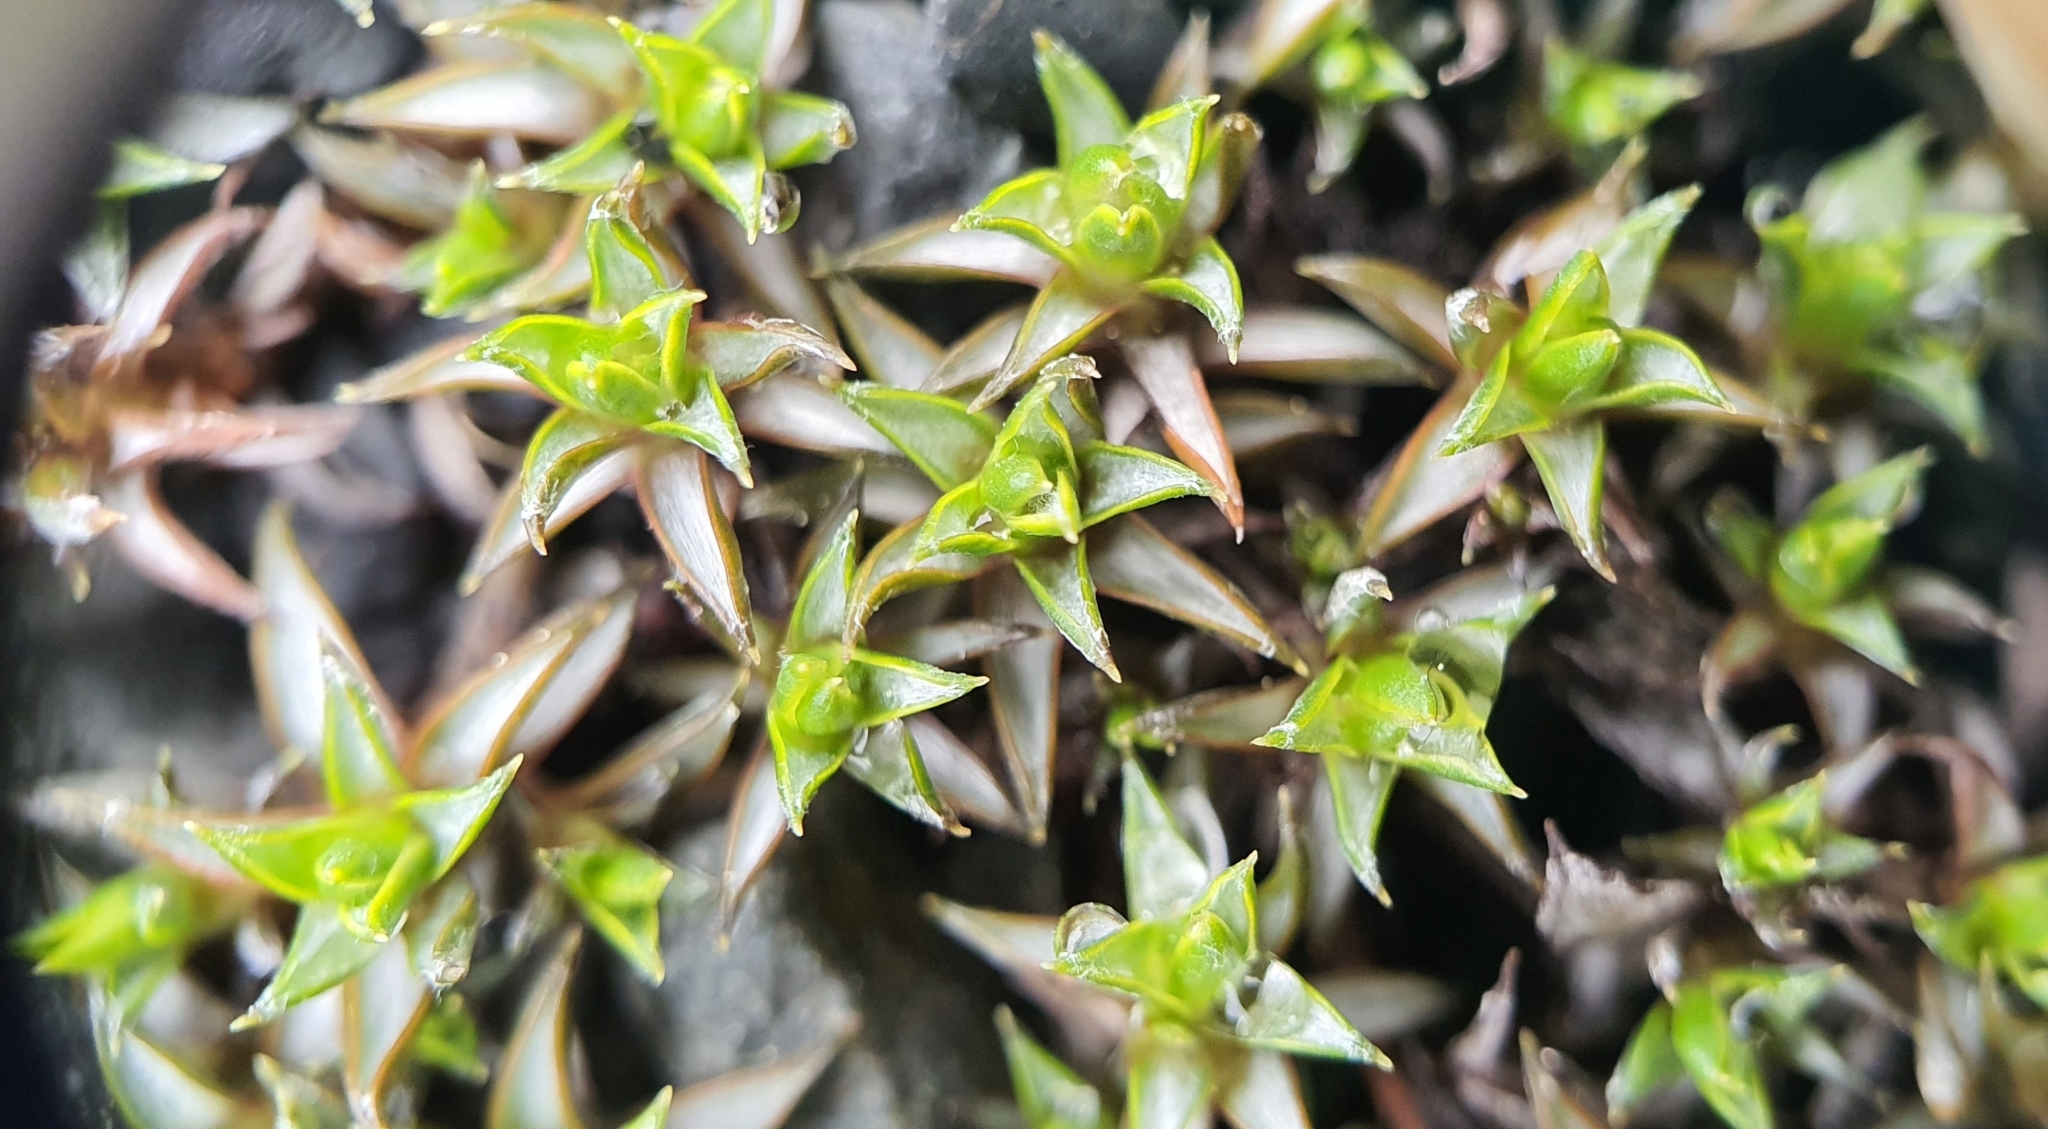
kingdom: Plantae
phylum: Tracheophyta
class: Magnoliopsida
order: Asterales
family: Asteraceae
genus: Raoulia
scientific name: Raoulia tenuicaulis
